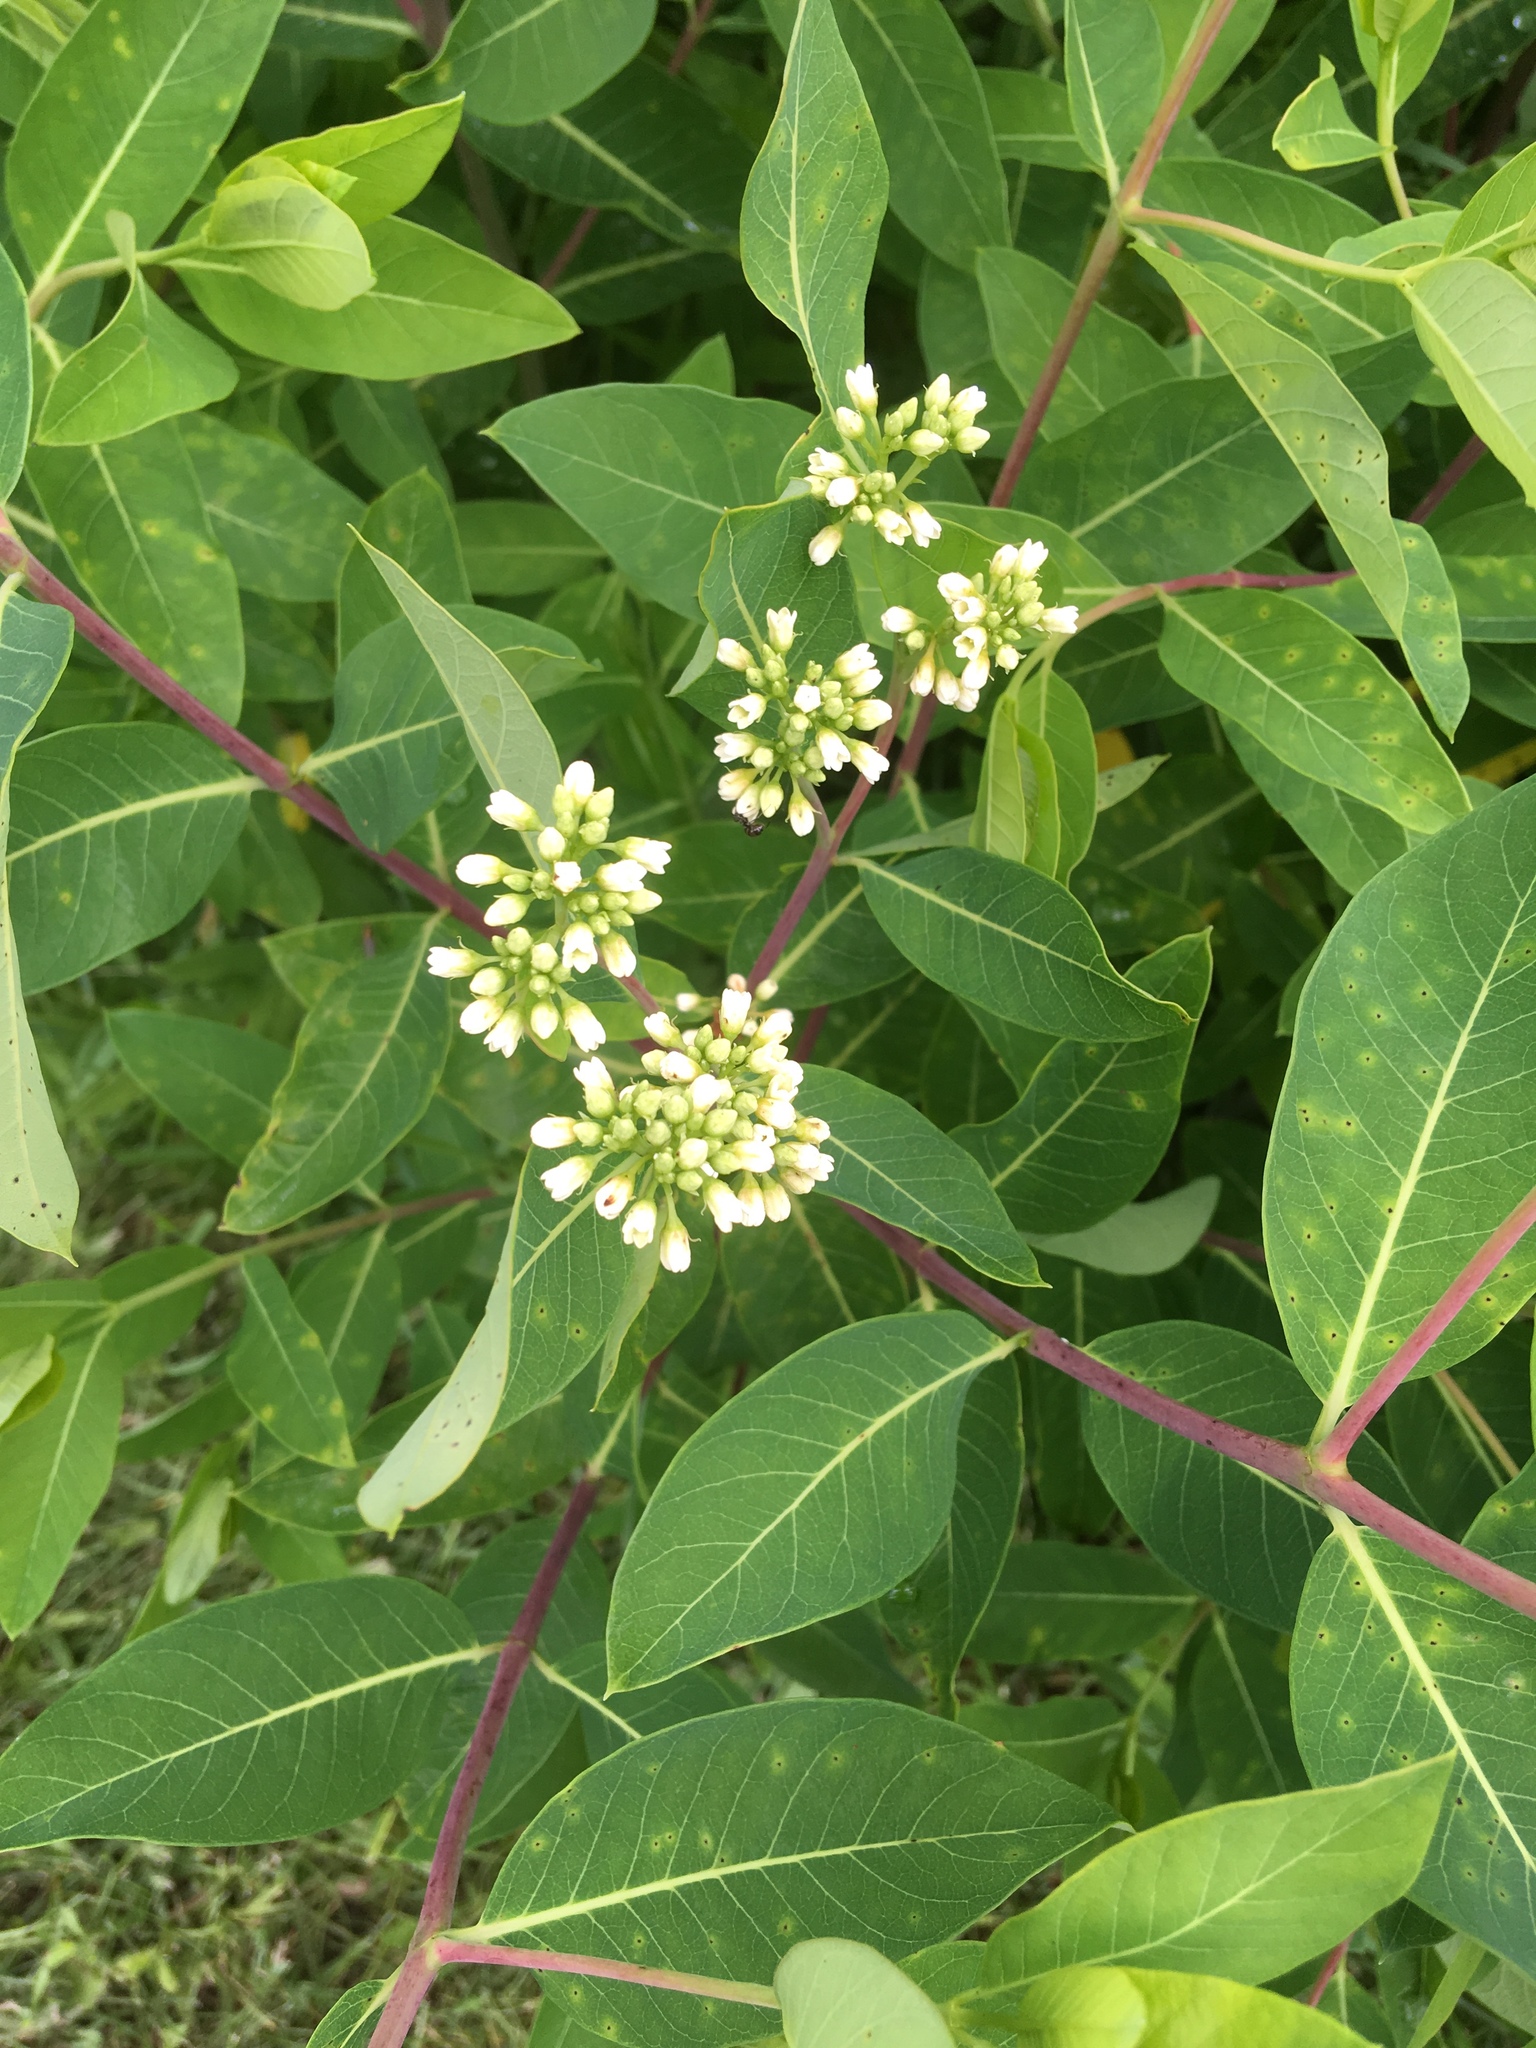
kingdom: Plantae
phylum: Tracheophyta
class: Magnoliopsida
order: Gentianales
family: Apocynaceae
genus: Apocynum
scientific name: Apocynum cannabinum
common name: Hemp dogbane
